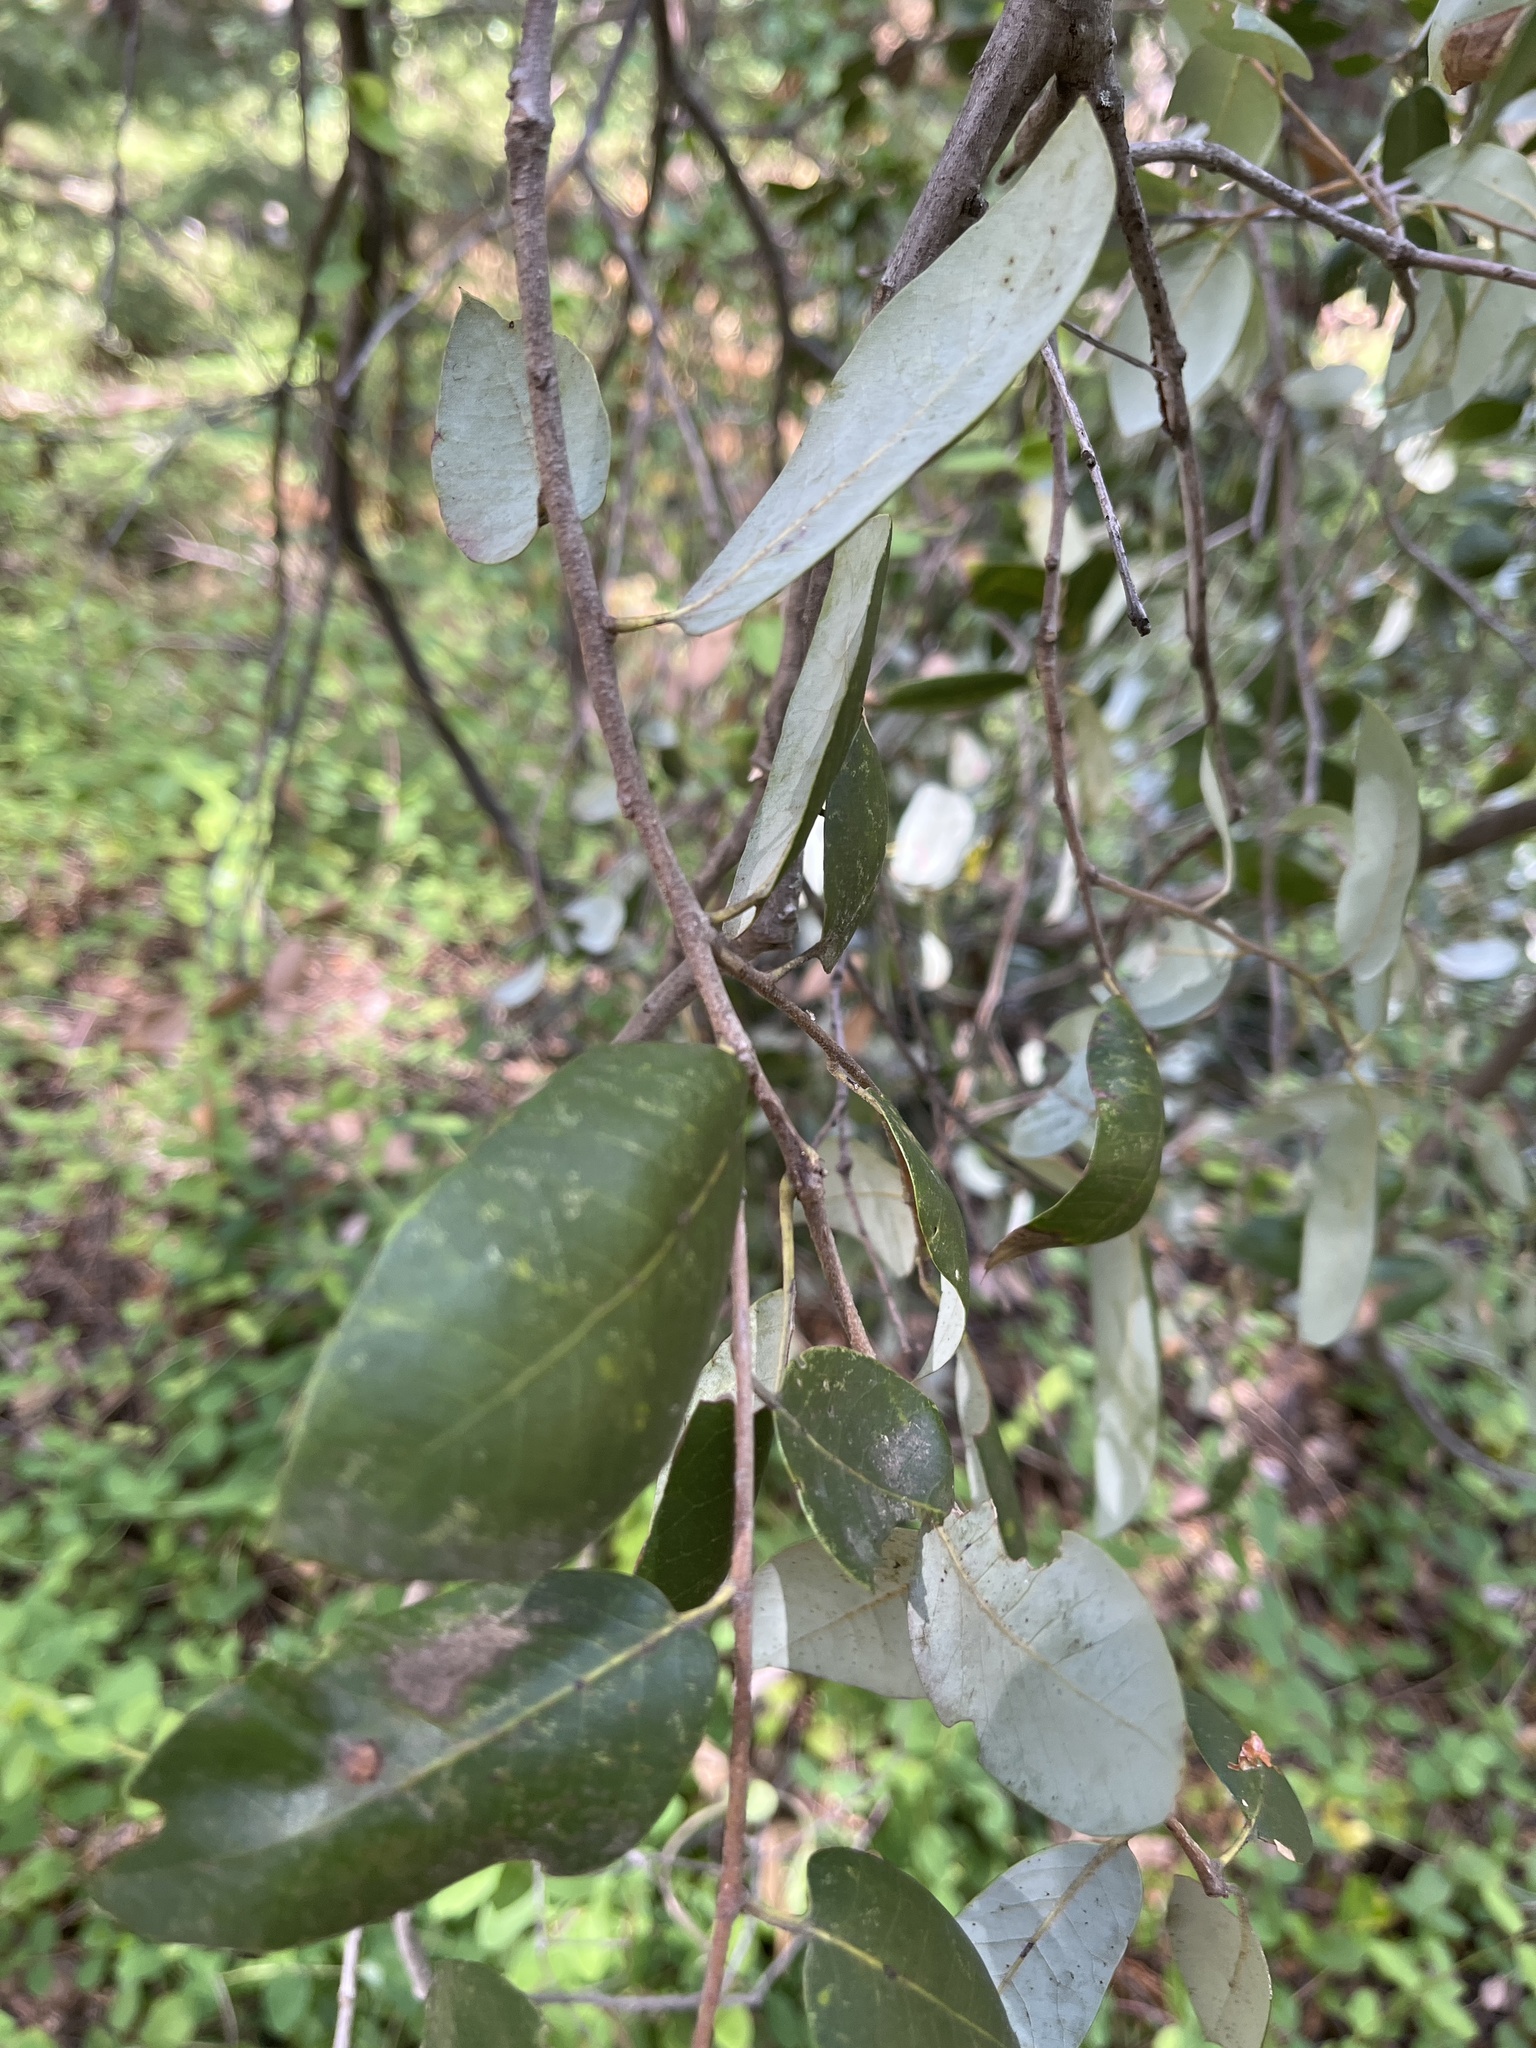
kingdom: Plantae
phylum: Tracheophyta
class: Magnoliopsida
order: Fagales
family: Fagaceae
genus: Quercus
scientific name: Quercus chrysolepis
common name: Canyon live oak
